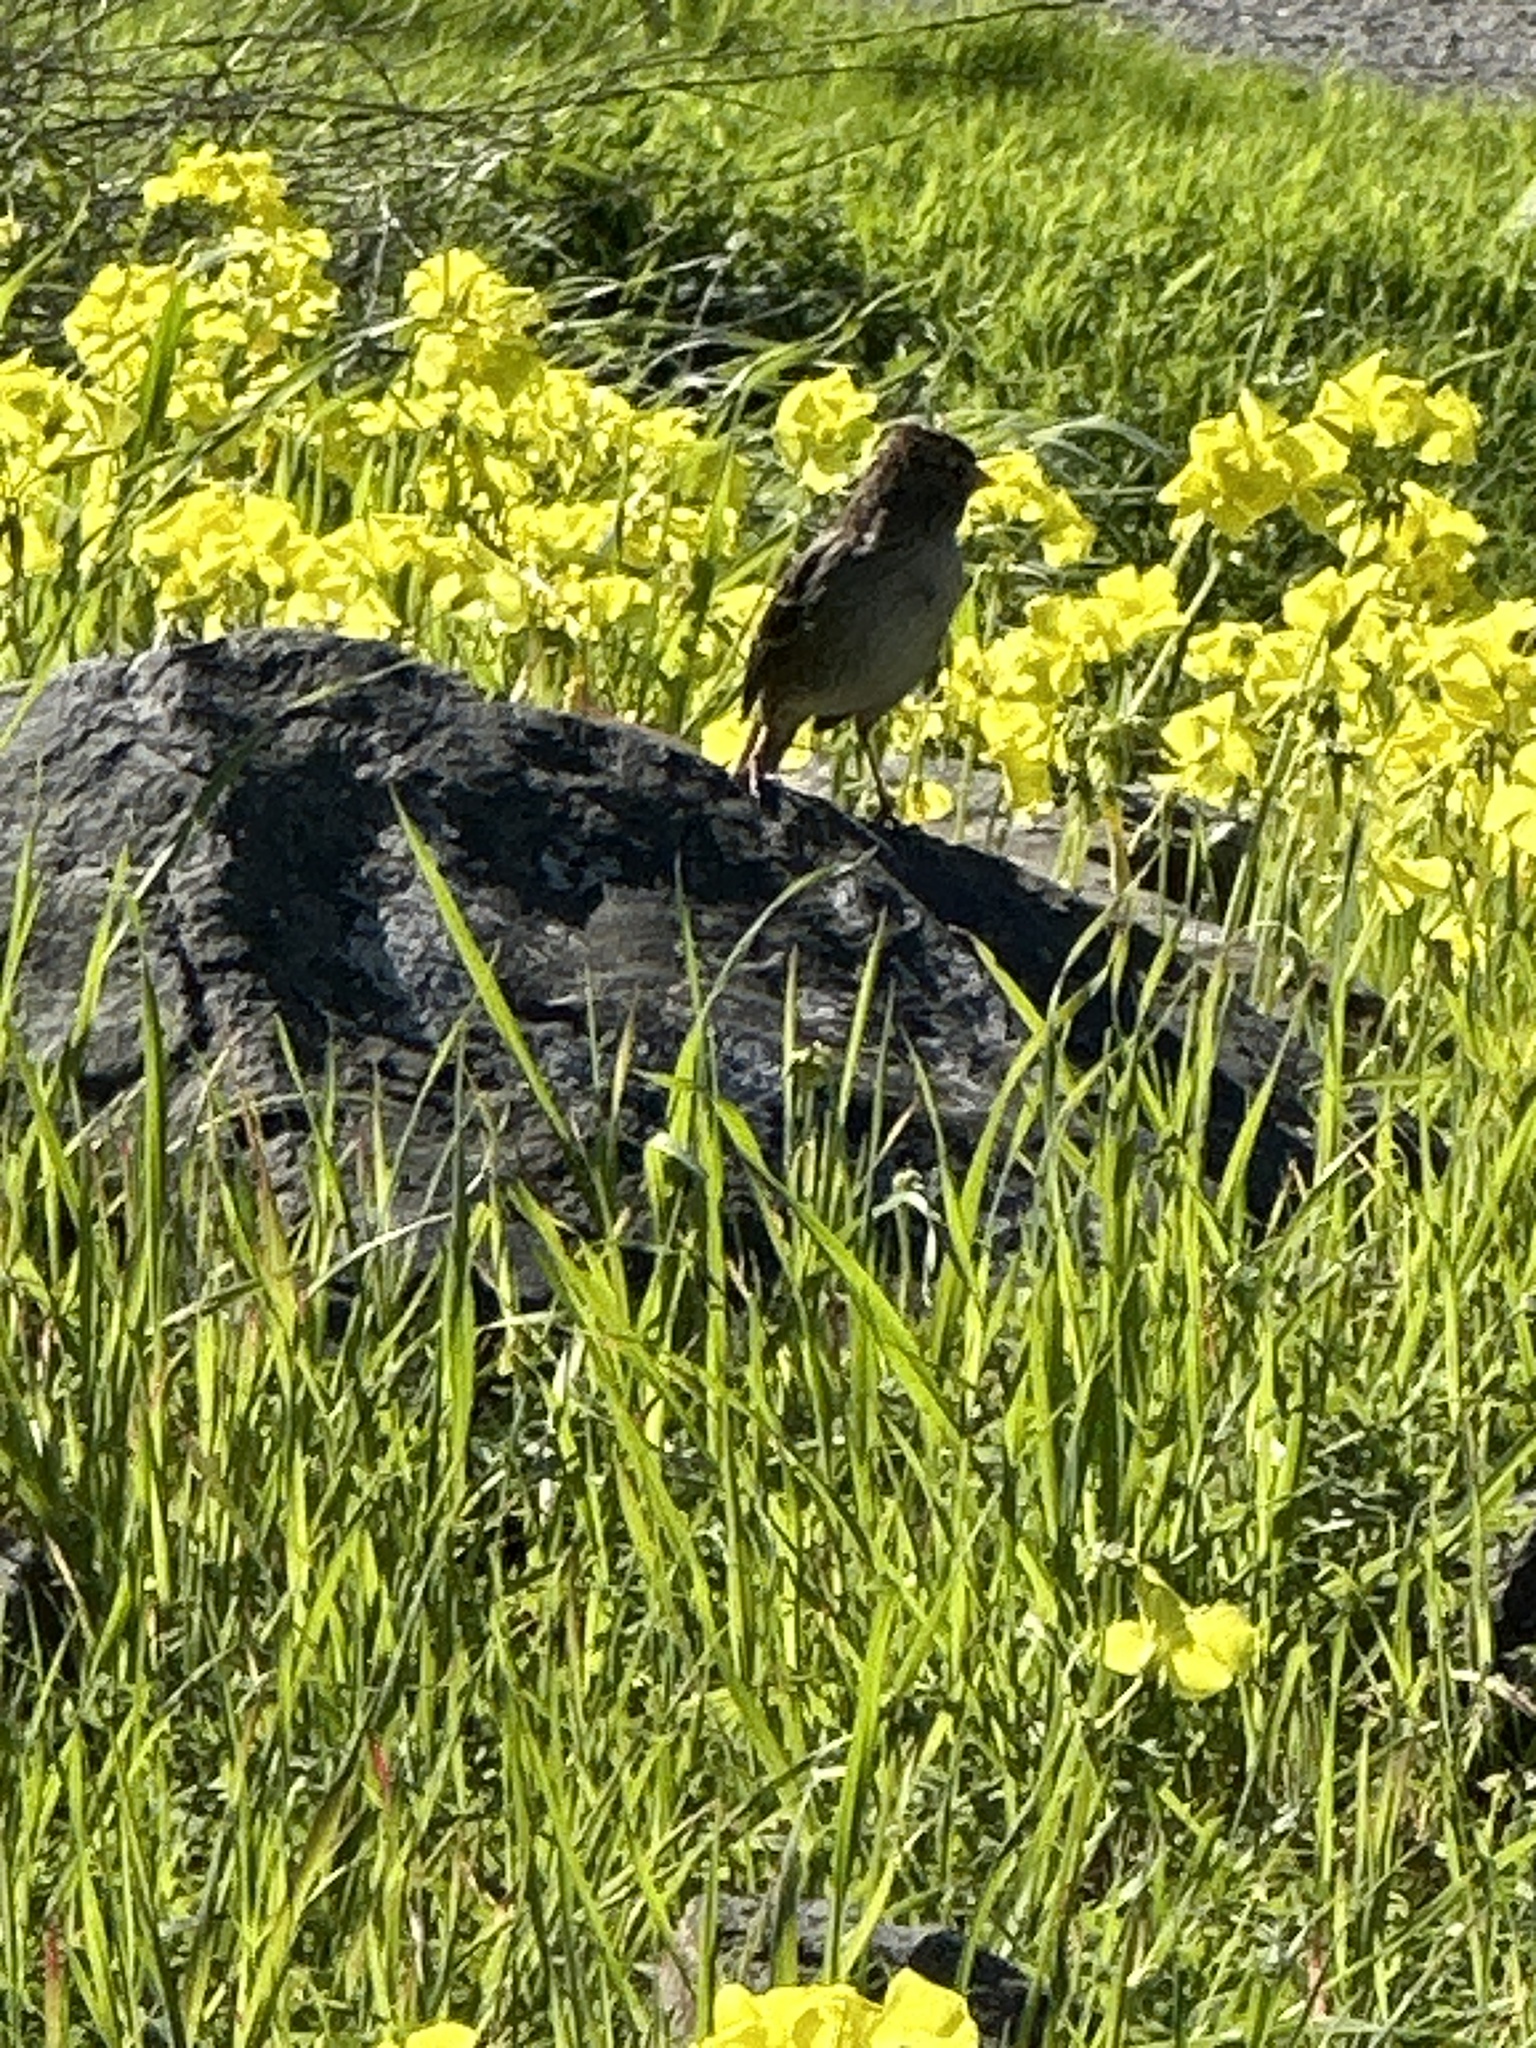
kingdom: Animalia
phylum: Chordata
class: Aves
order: Passeriformes
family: Passerellidae
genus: Zonotrichia
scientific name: Zonotrichia atricapilla
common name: Golden-crowned sparrow
